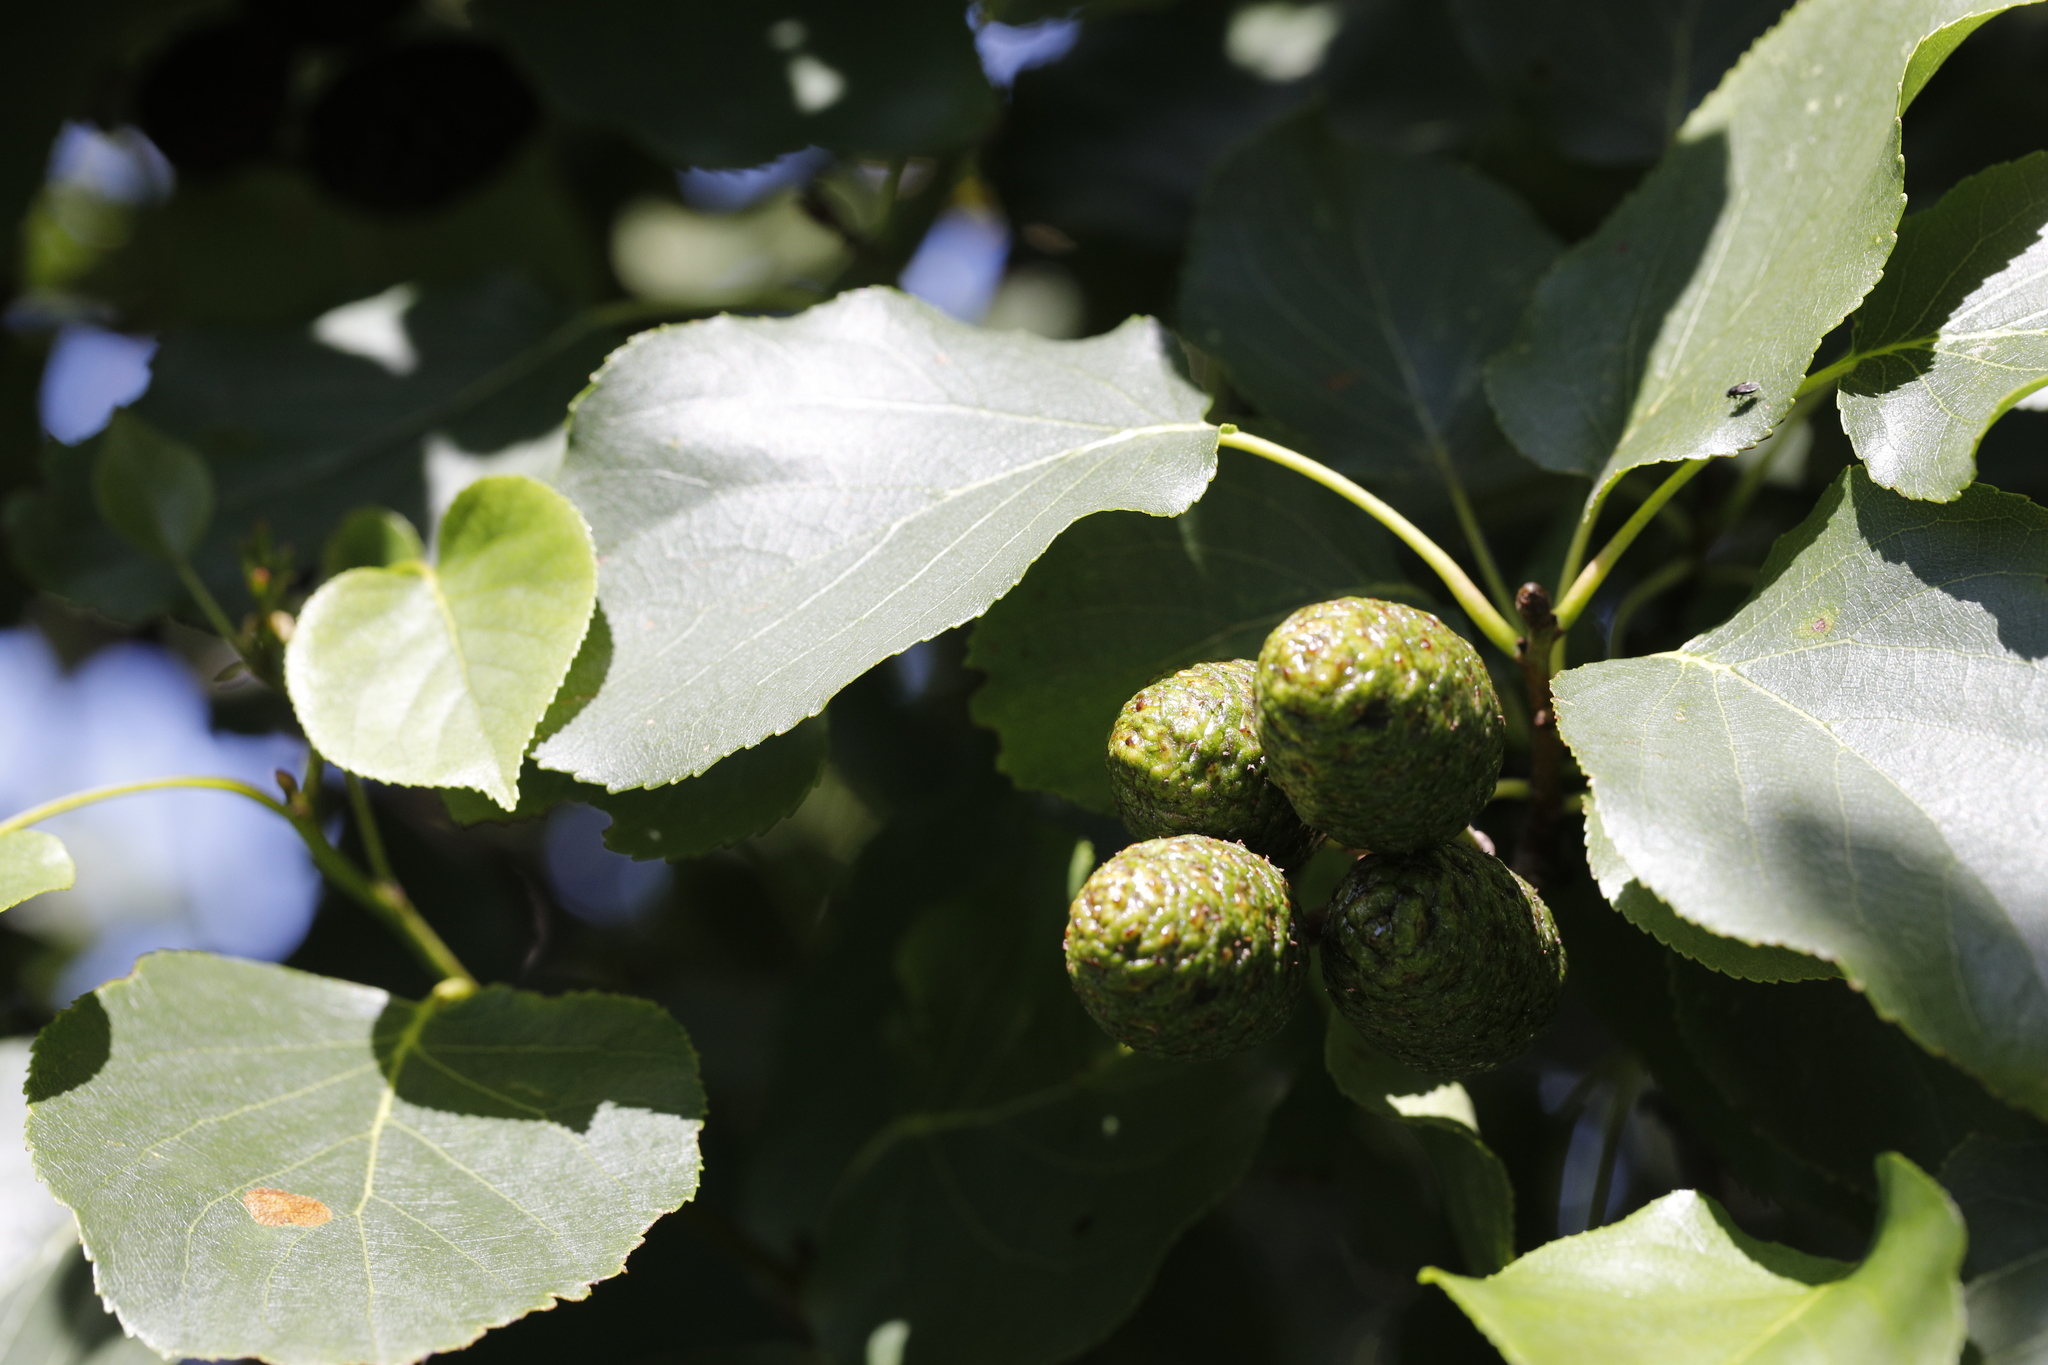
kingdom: Plantae
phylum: Tracheophyta
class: Magnoliopsida
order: Fagales
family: Betulaceae
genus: Alnus
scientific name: Alnus cordata
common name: Italian alder
